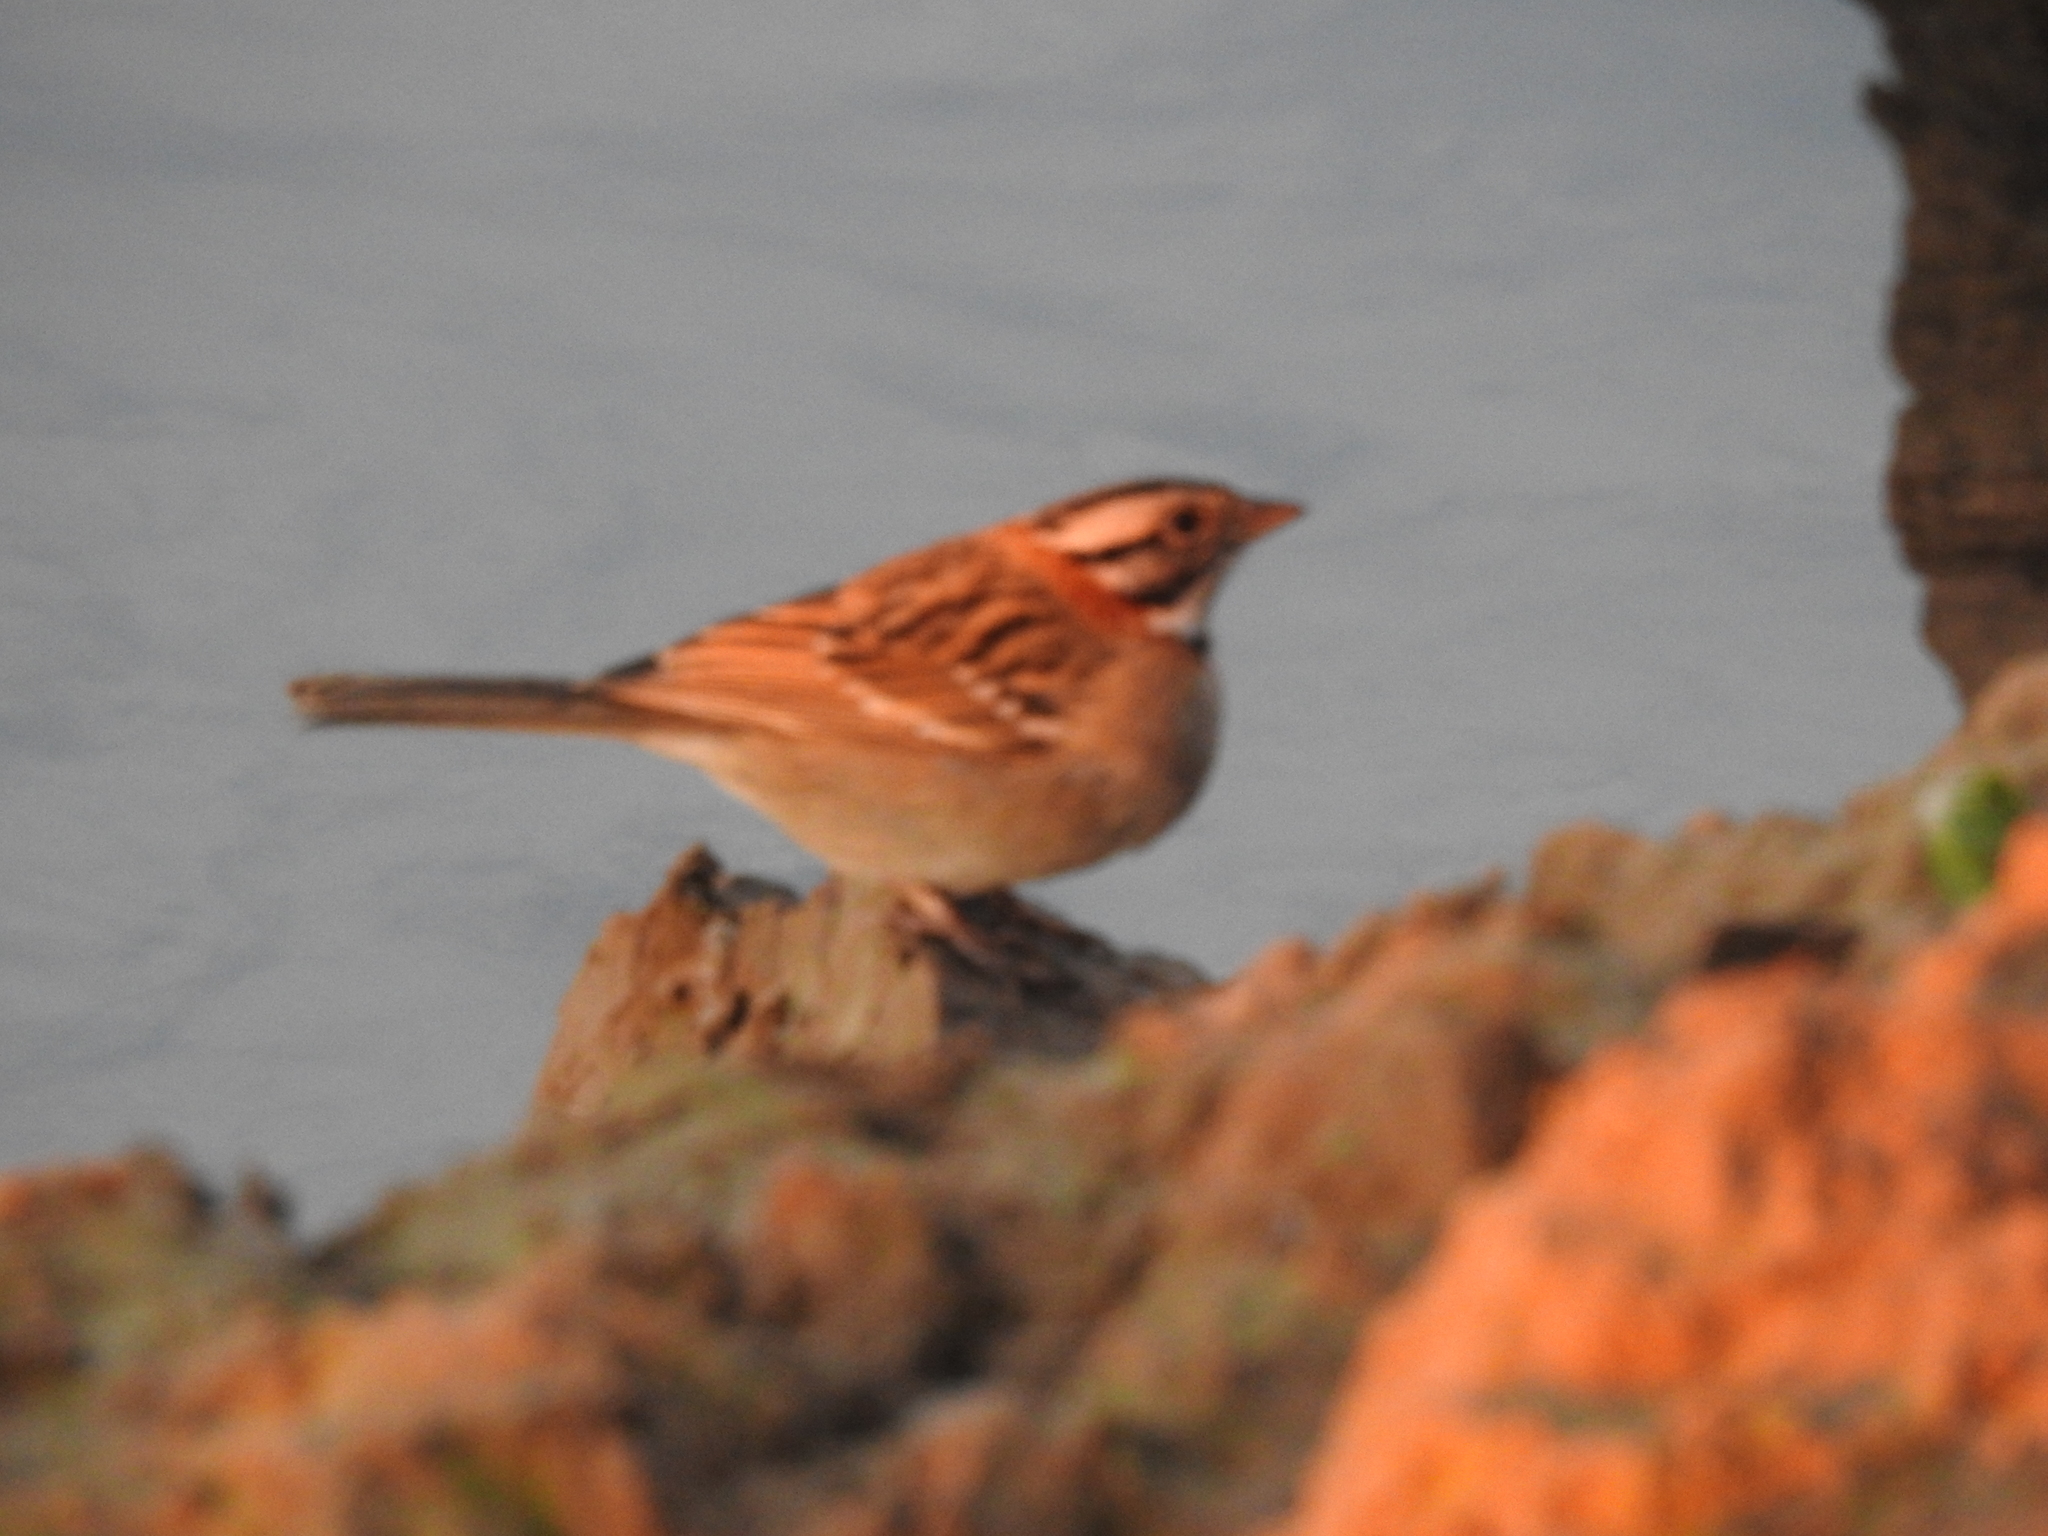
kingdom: Animalia
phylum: Chordata
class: Aves
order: Passeriformes
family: Passerellidae
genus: Zonotrichia
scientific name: Zonotrichia capensis
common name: Rufous-collared sparrow
